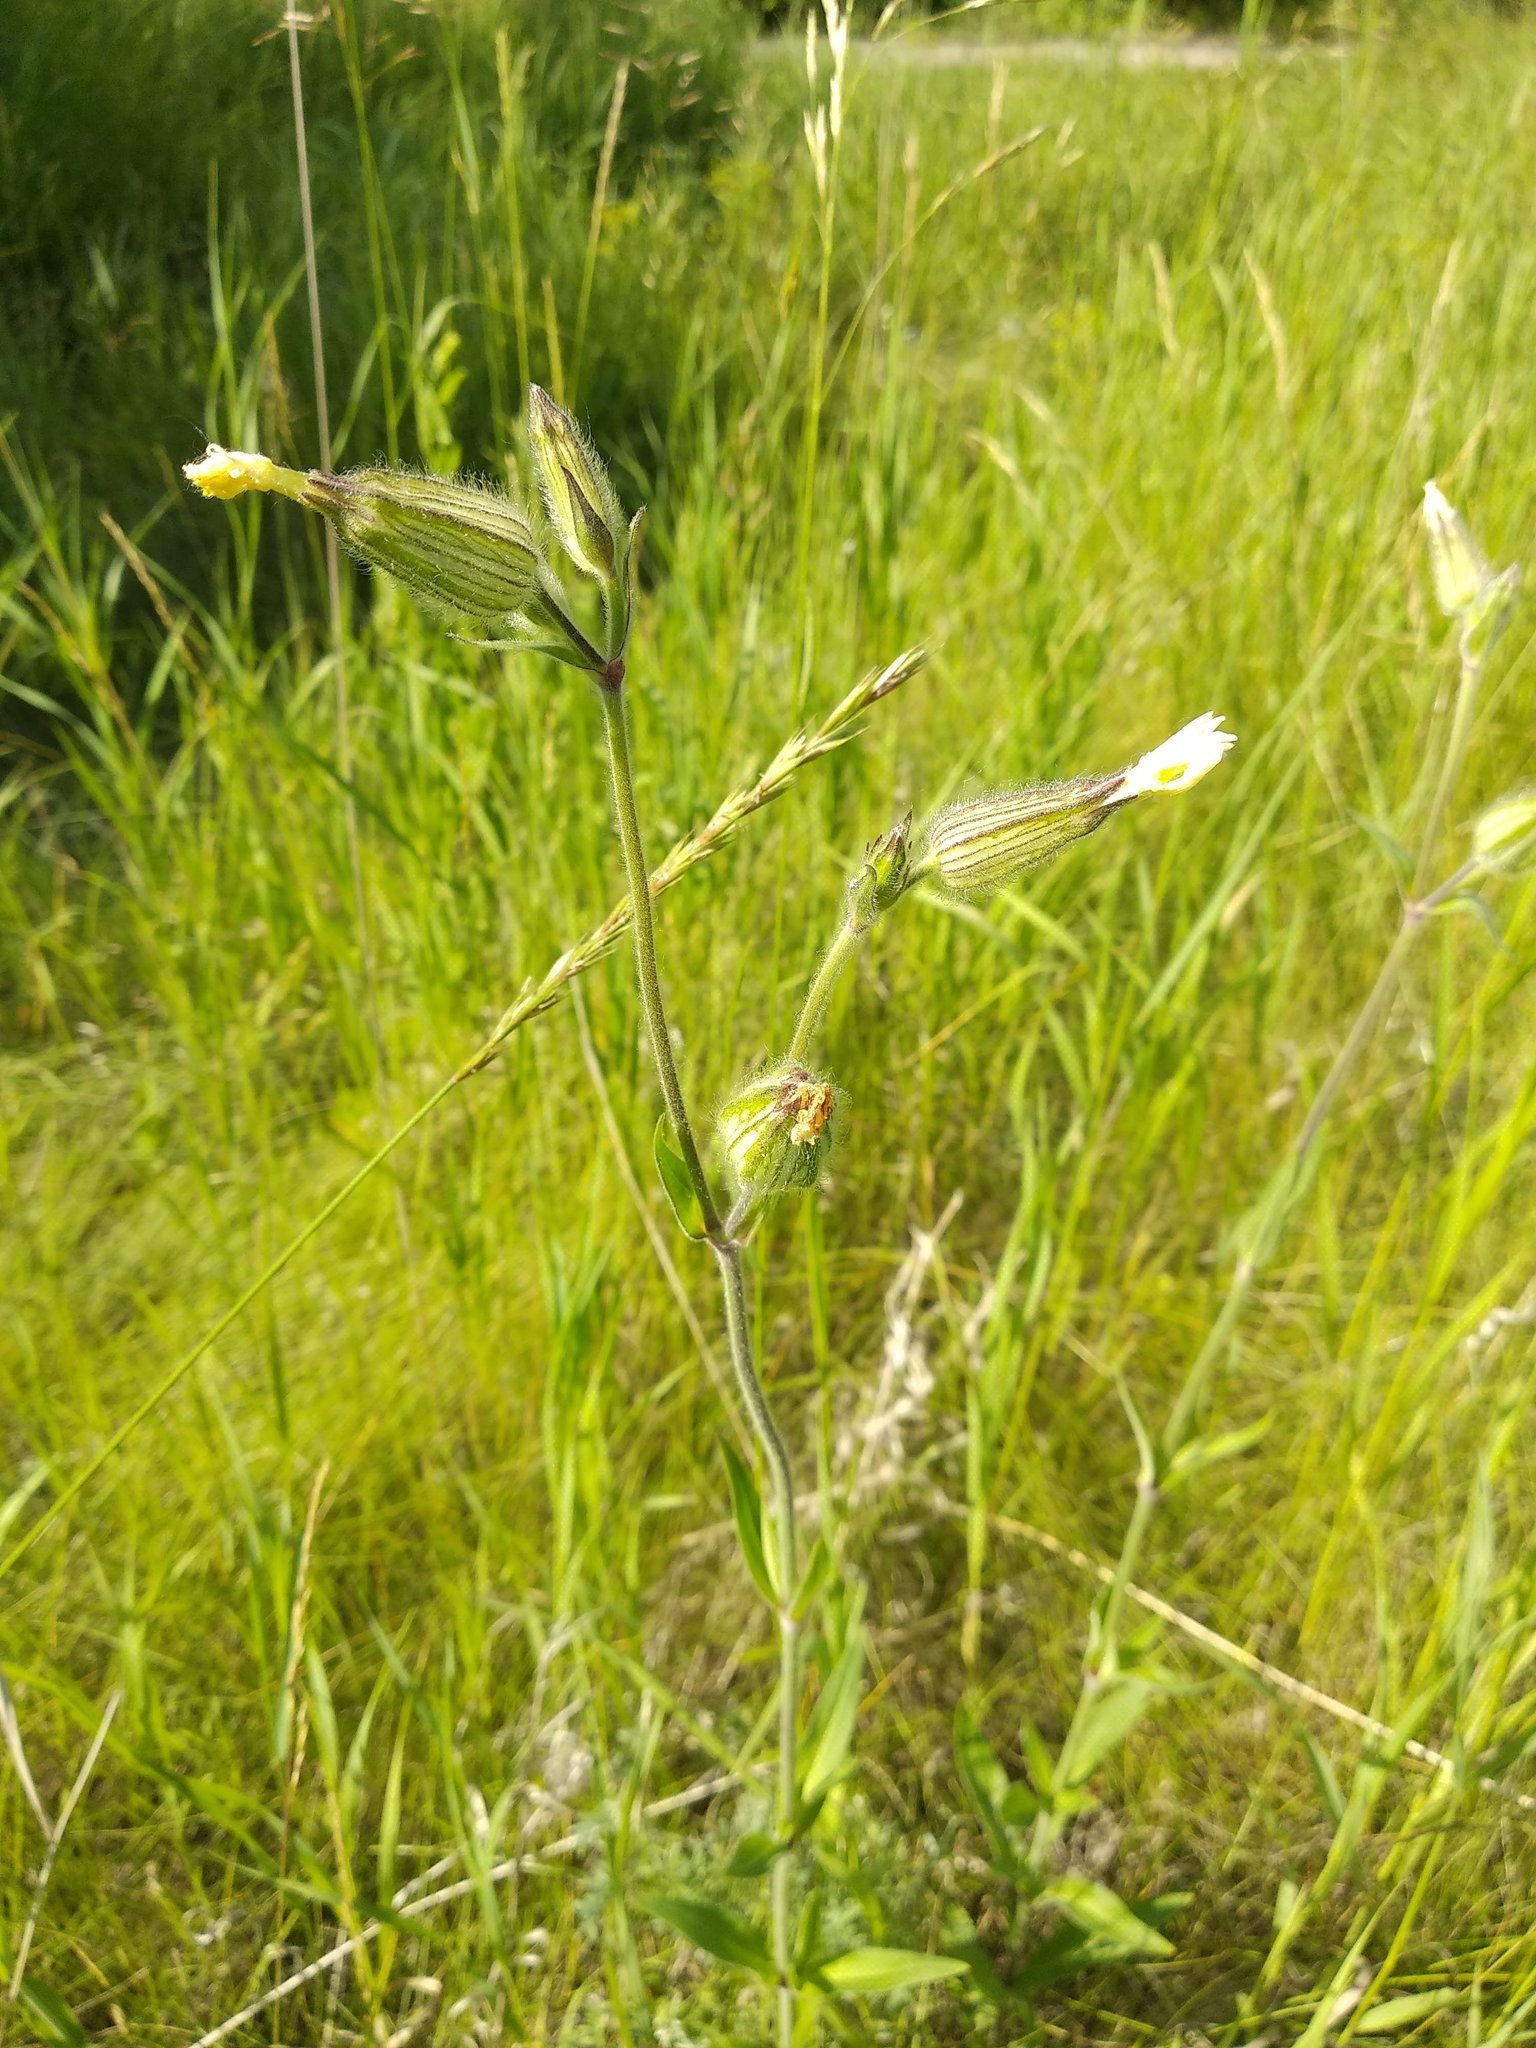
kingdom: Plantae
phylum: Tracheophyta
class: Magnoliopsida
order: Caryophyllales
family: Caryophyllaceae
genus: Silene
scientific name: Silene latifolia
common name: White campion
